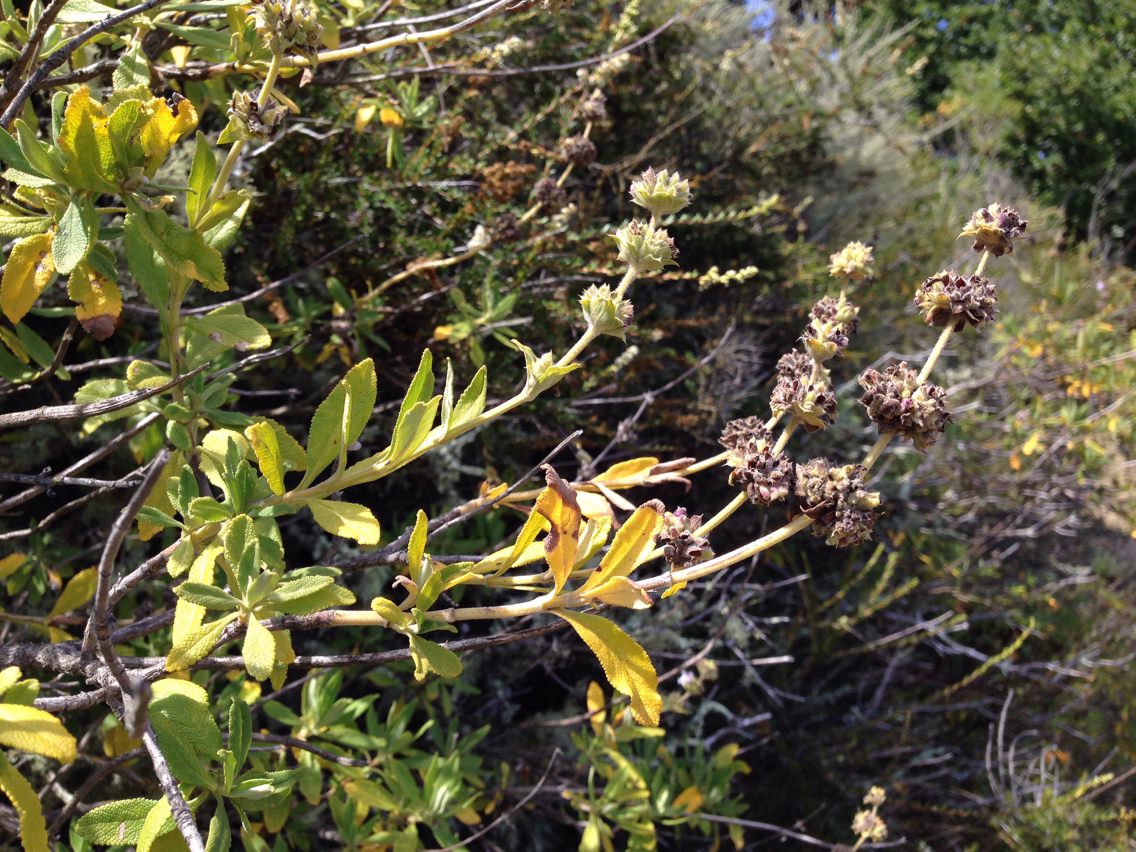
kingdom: Plantae
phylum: Tracheophyta
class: Magnoliopsida
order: Lamiales
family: Lamiaceae
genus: Salvia
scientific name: Salvia mellifera
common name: Black sage
